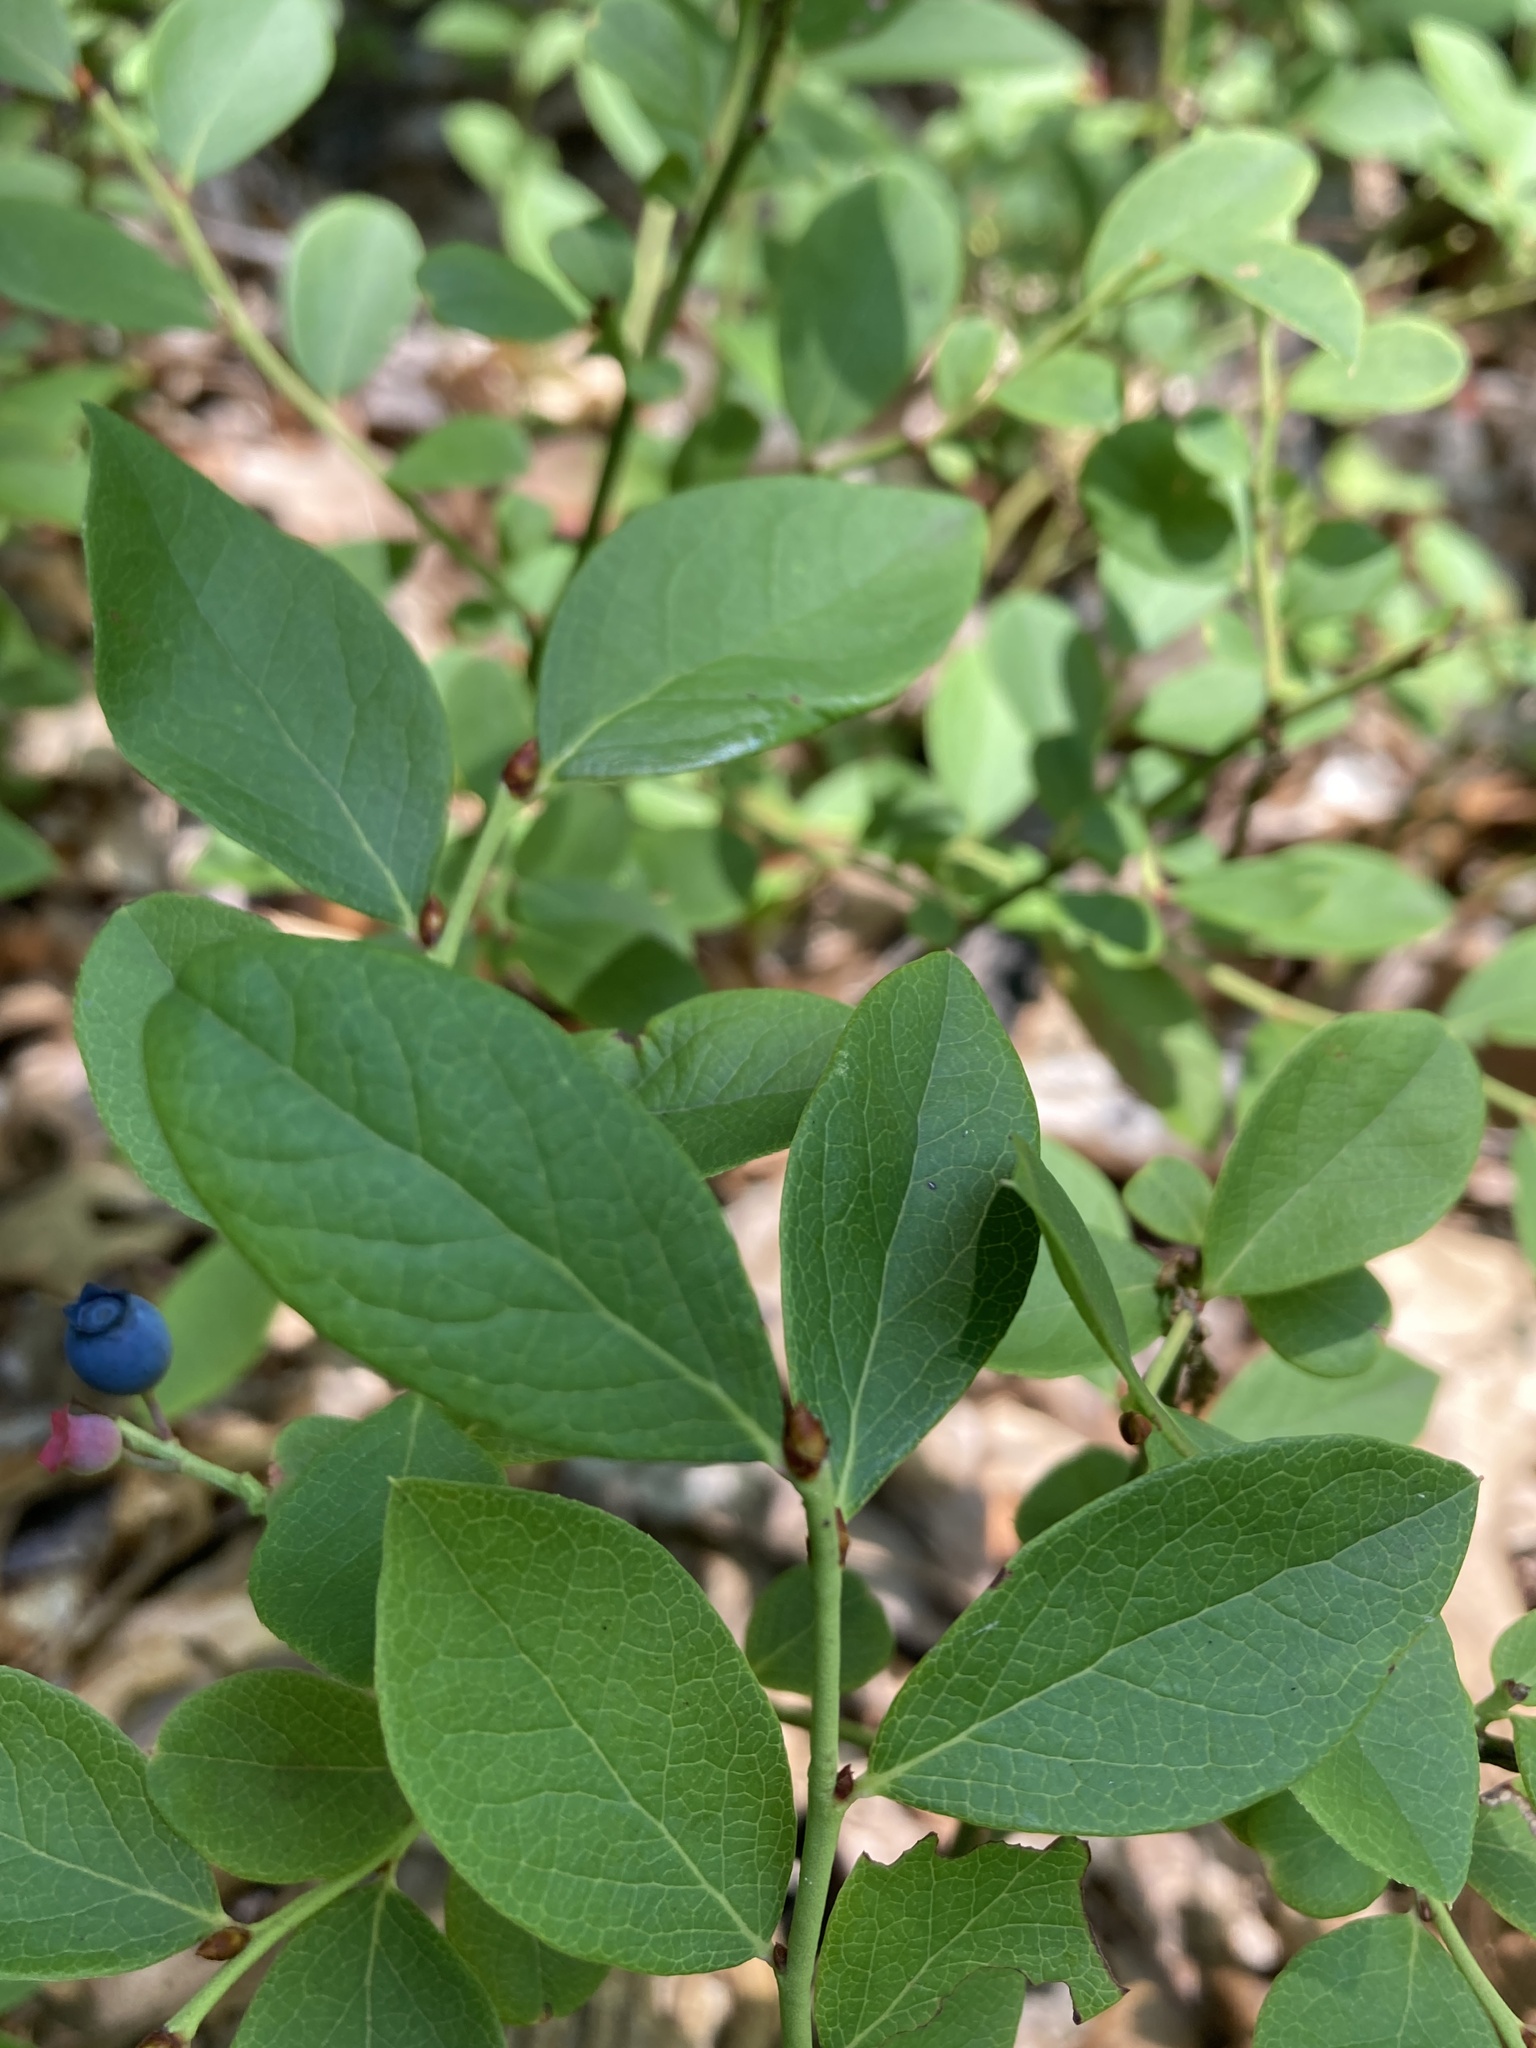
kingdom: Plantae
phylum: Tracheophyta
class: Magnoliopsida
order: Ericales
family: Ericaceae
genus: Vaccinium
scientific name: Vaccinium pallidum
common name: Blue ridge blueberry
